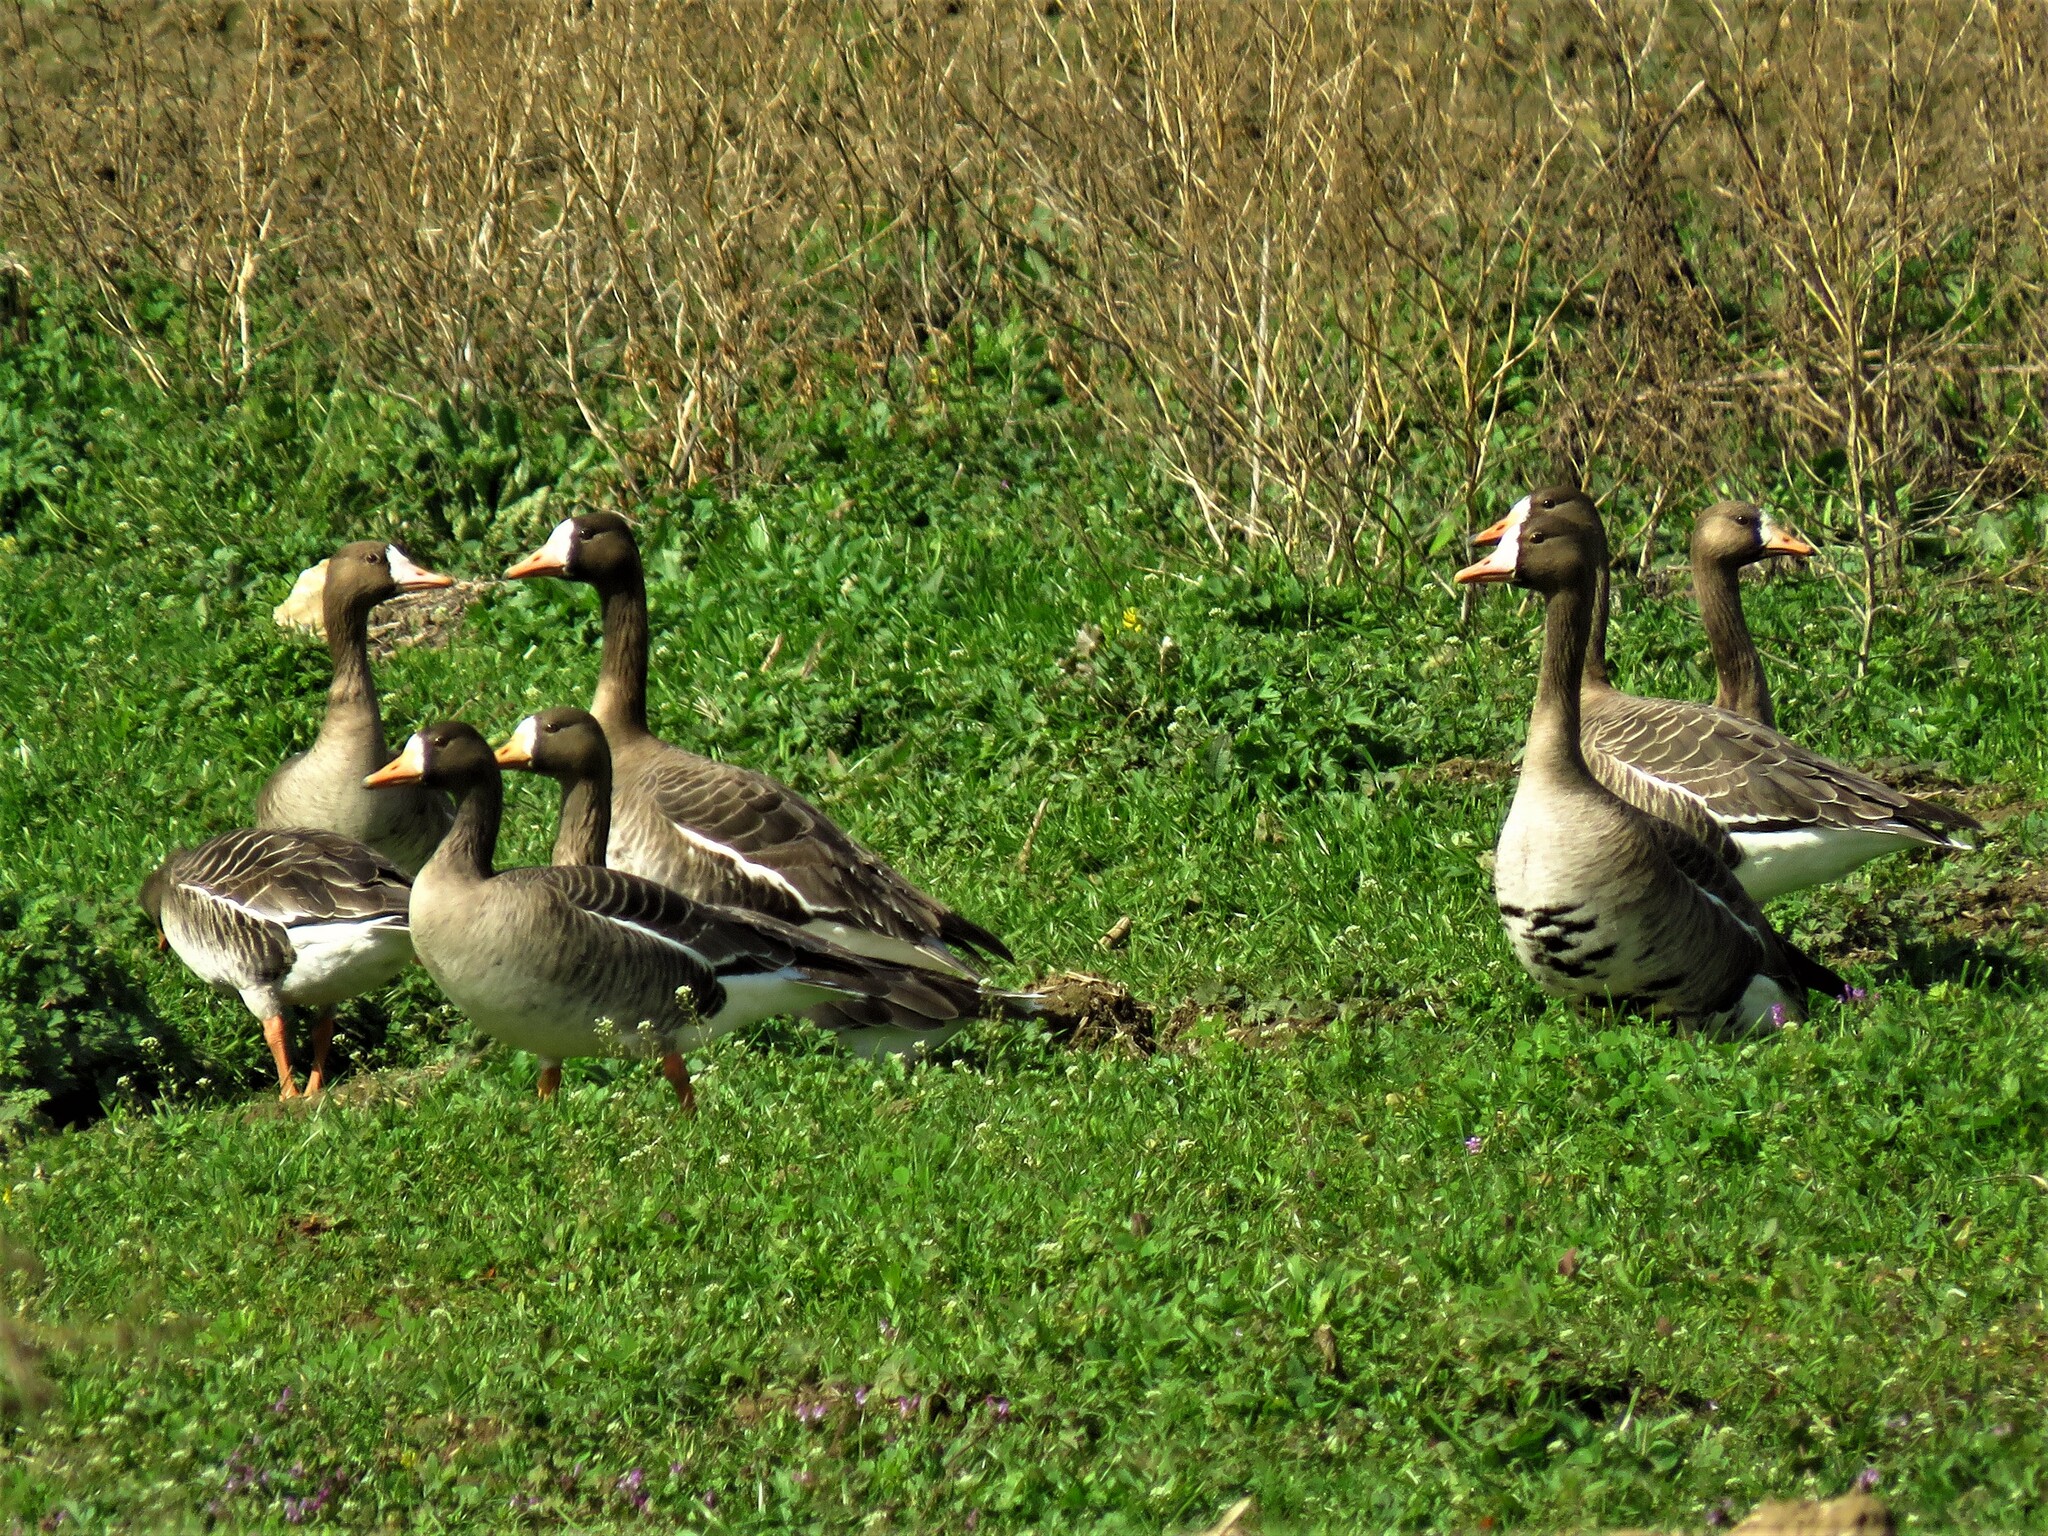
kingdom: Animalia
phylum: Chordata
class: Aves
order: Anseriformes
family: Anatidae
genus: Anser
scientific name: Anser albifrons
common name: Greater white-fronted goose
